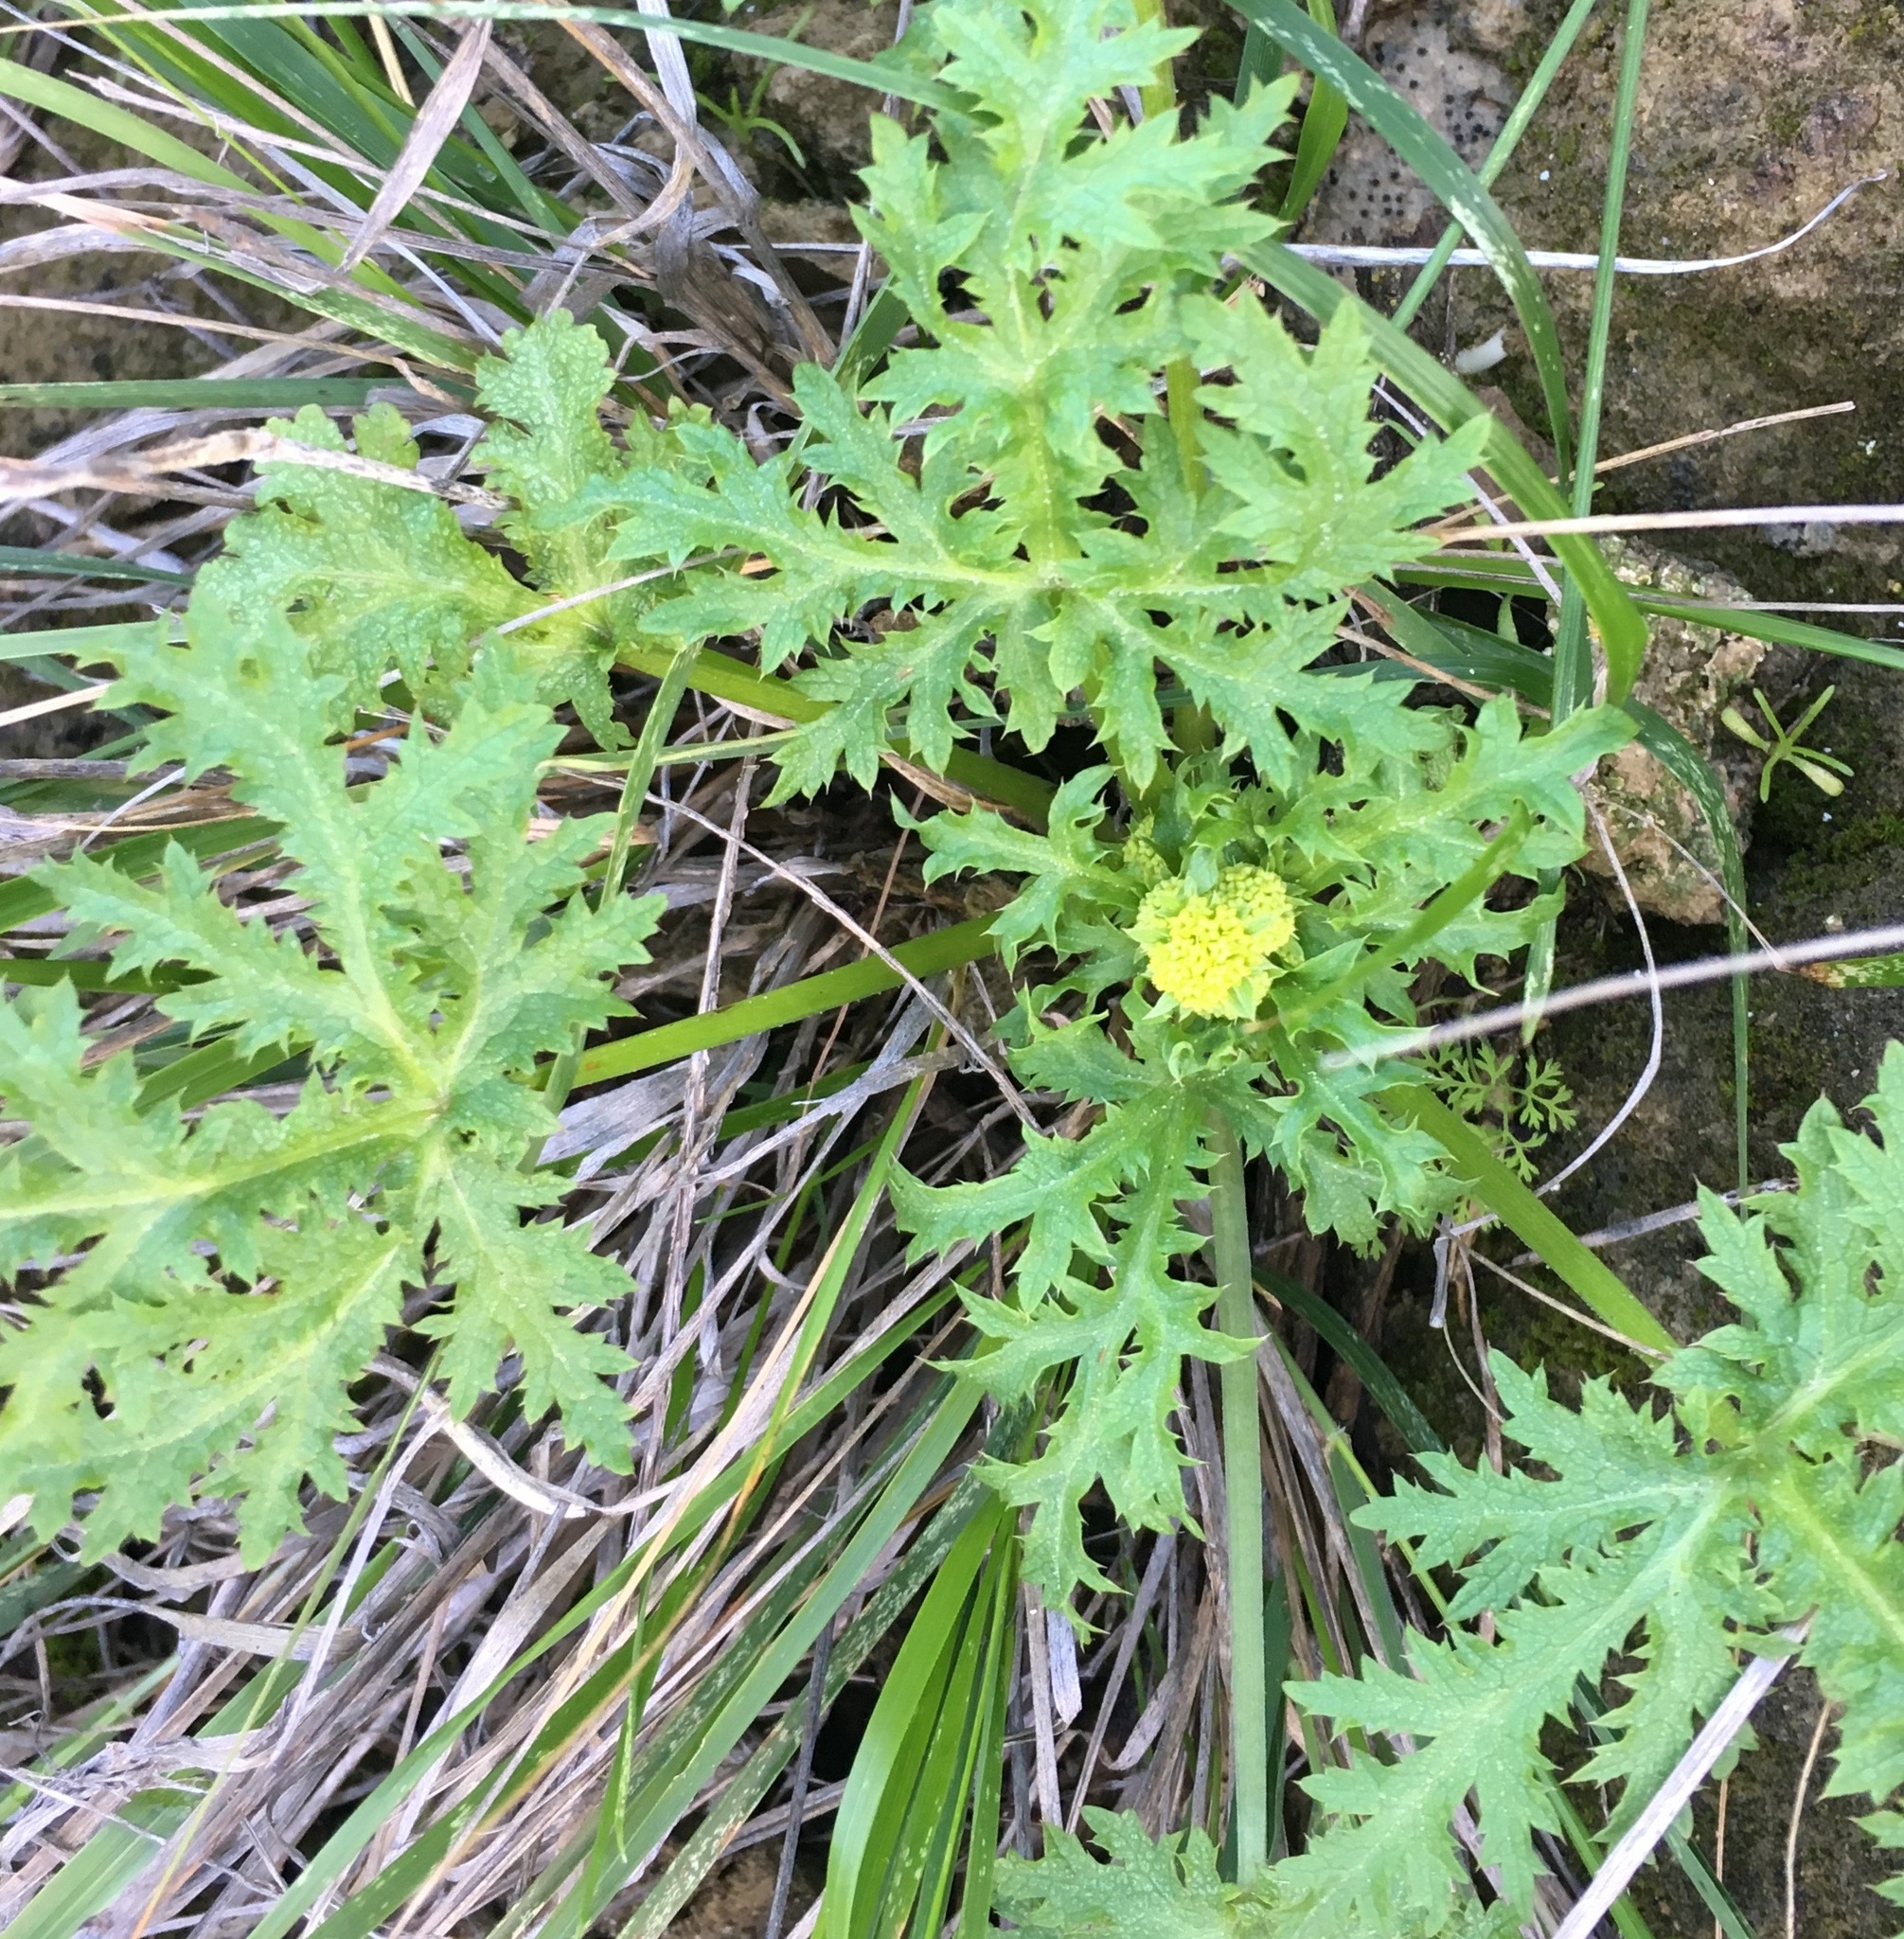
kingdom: Plantae
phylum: Tracheophyta
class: Magnoliopsida
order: Apiales
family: Apiaceae
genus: Sanicula
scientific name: Sanicula arguta
